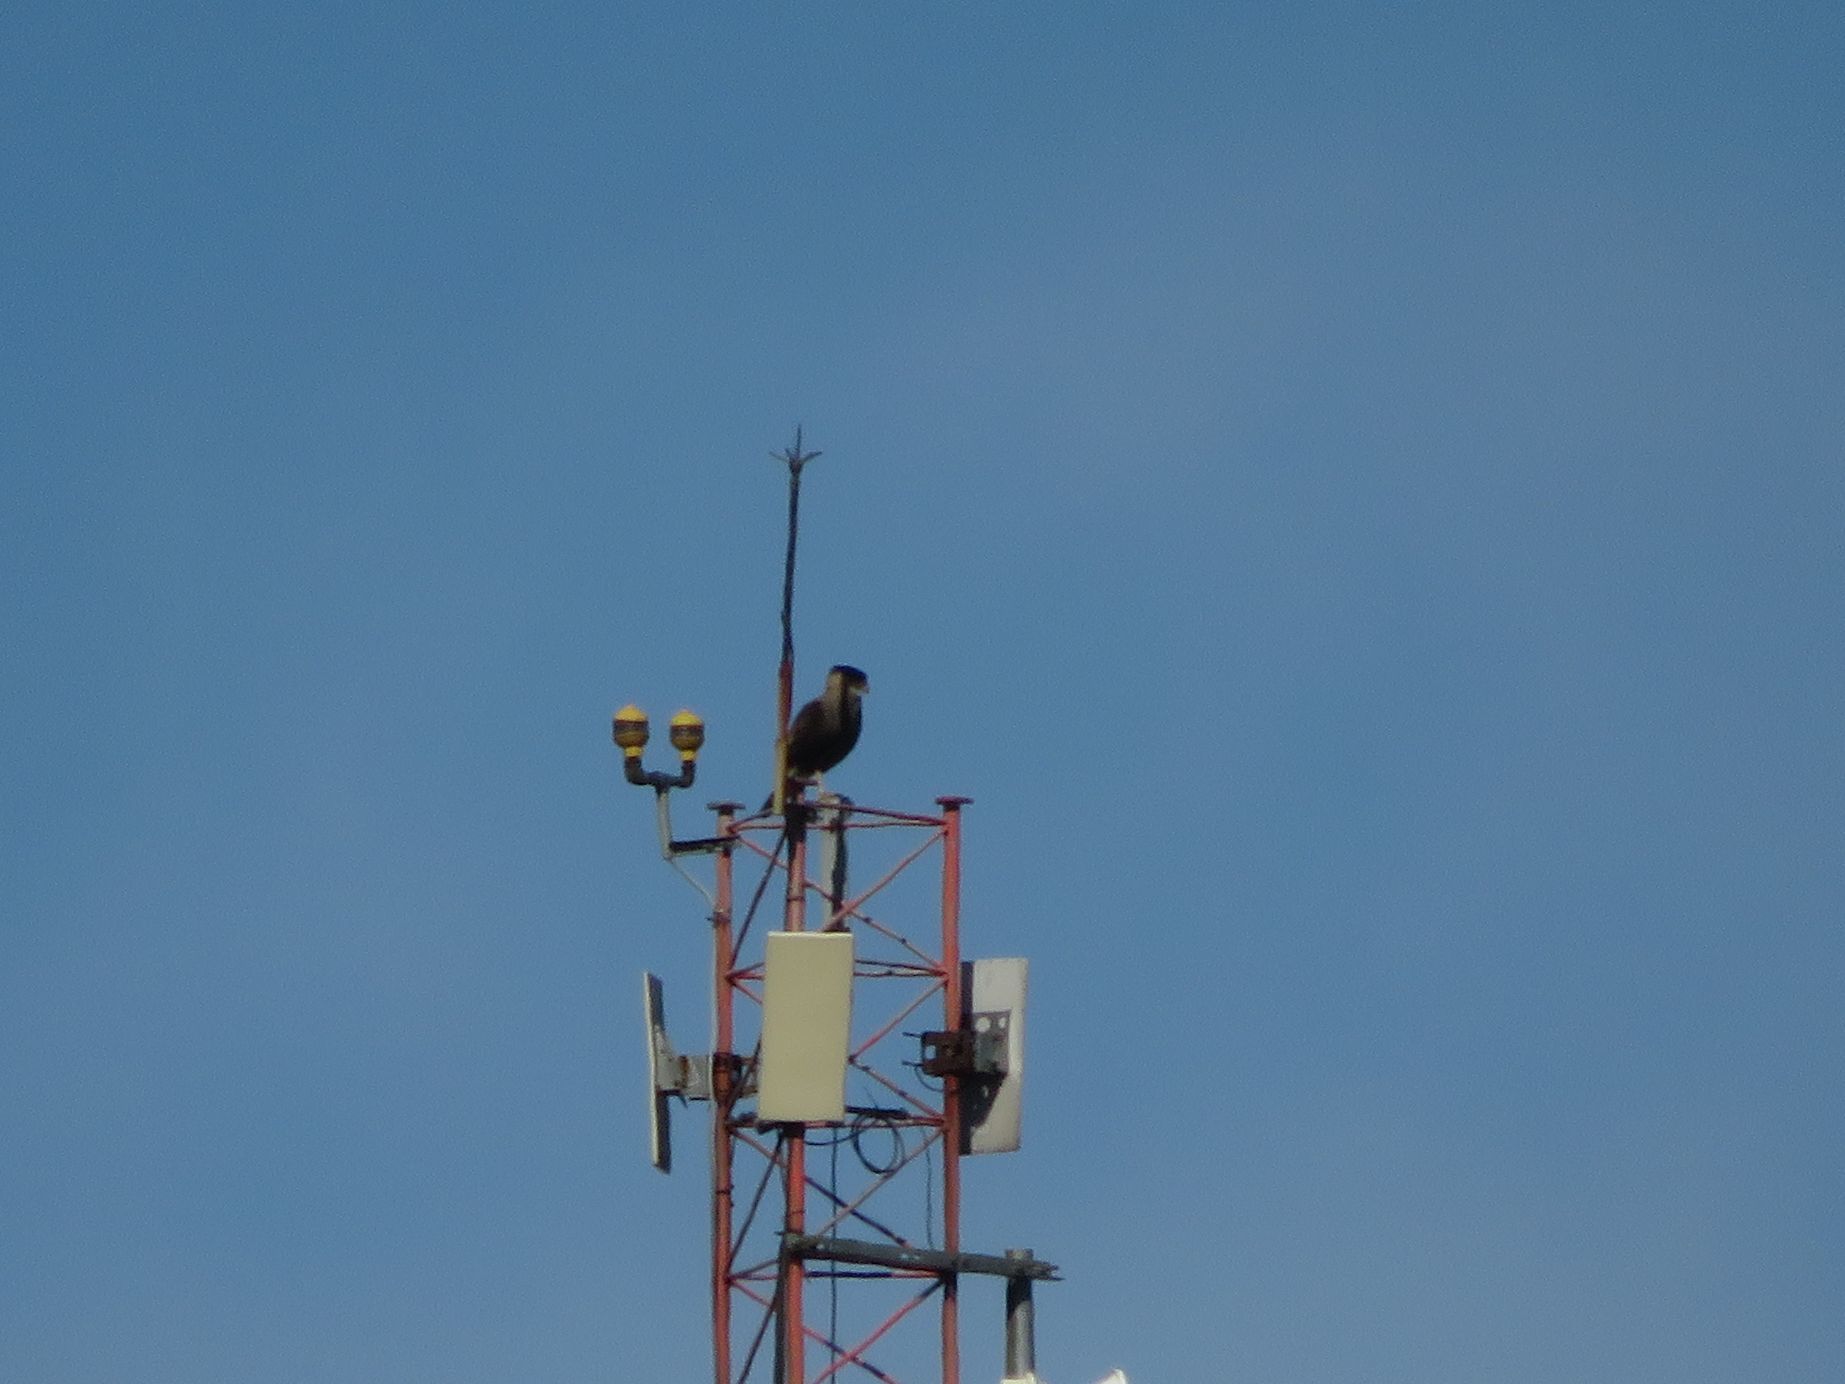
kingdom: Animalia
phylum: Chordata
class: Aves
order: Falconiformes
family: Falconidae
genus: Caracara
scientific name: Caracara plancus
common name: Southern caracara
